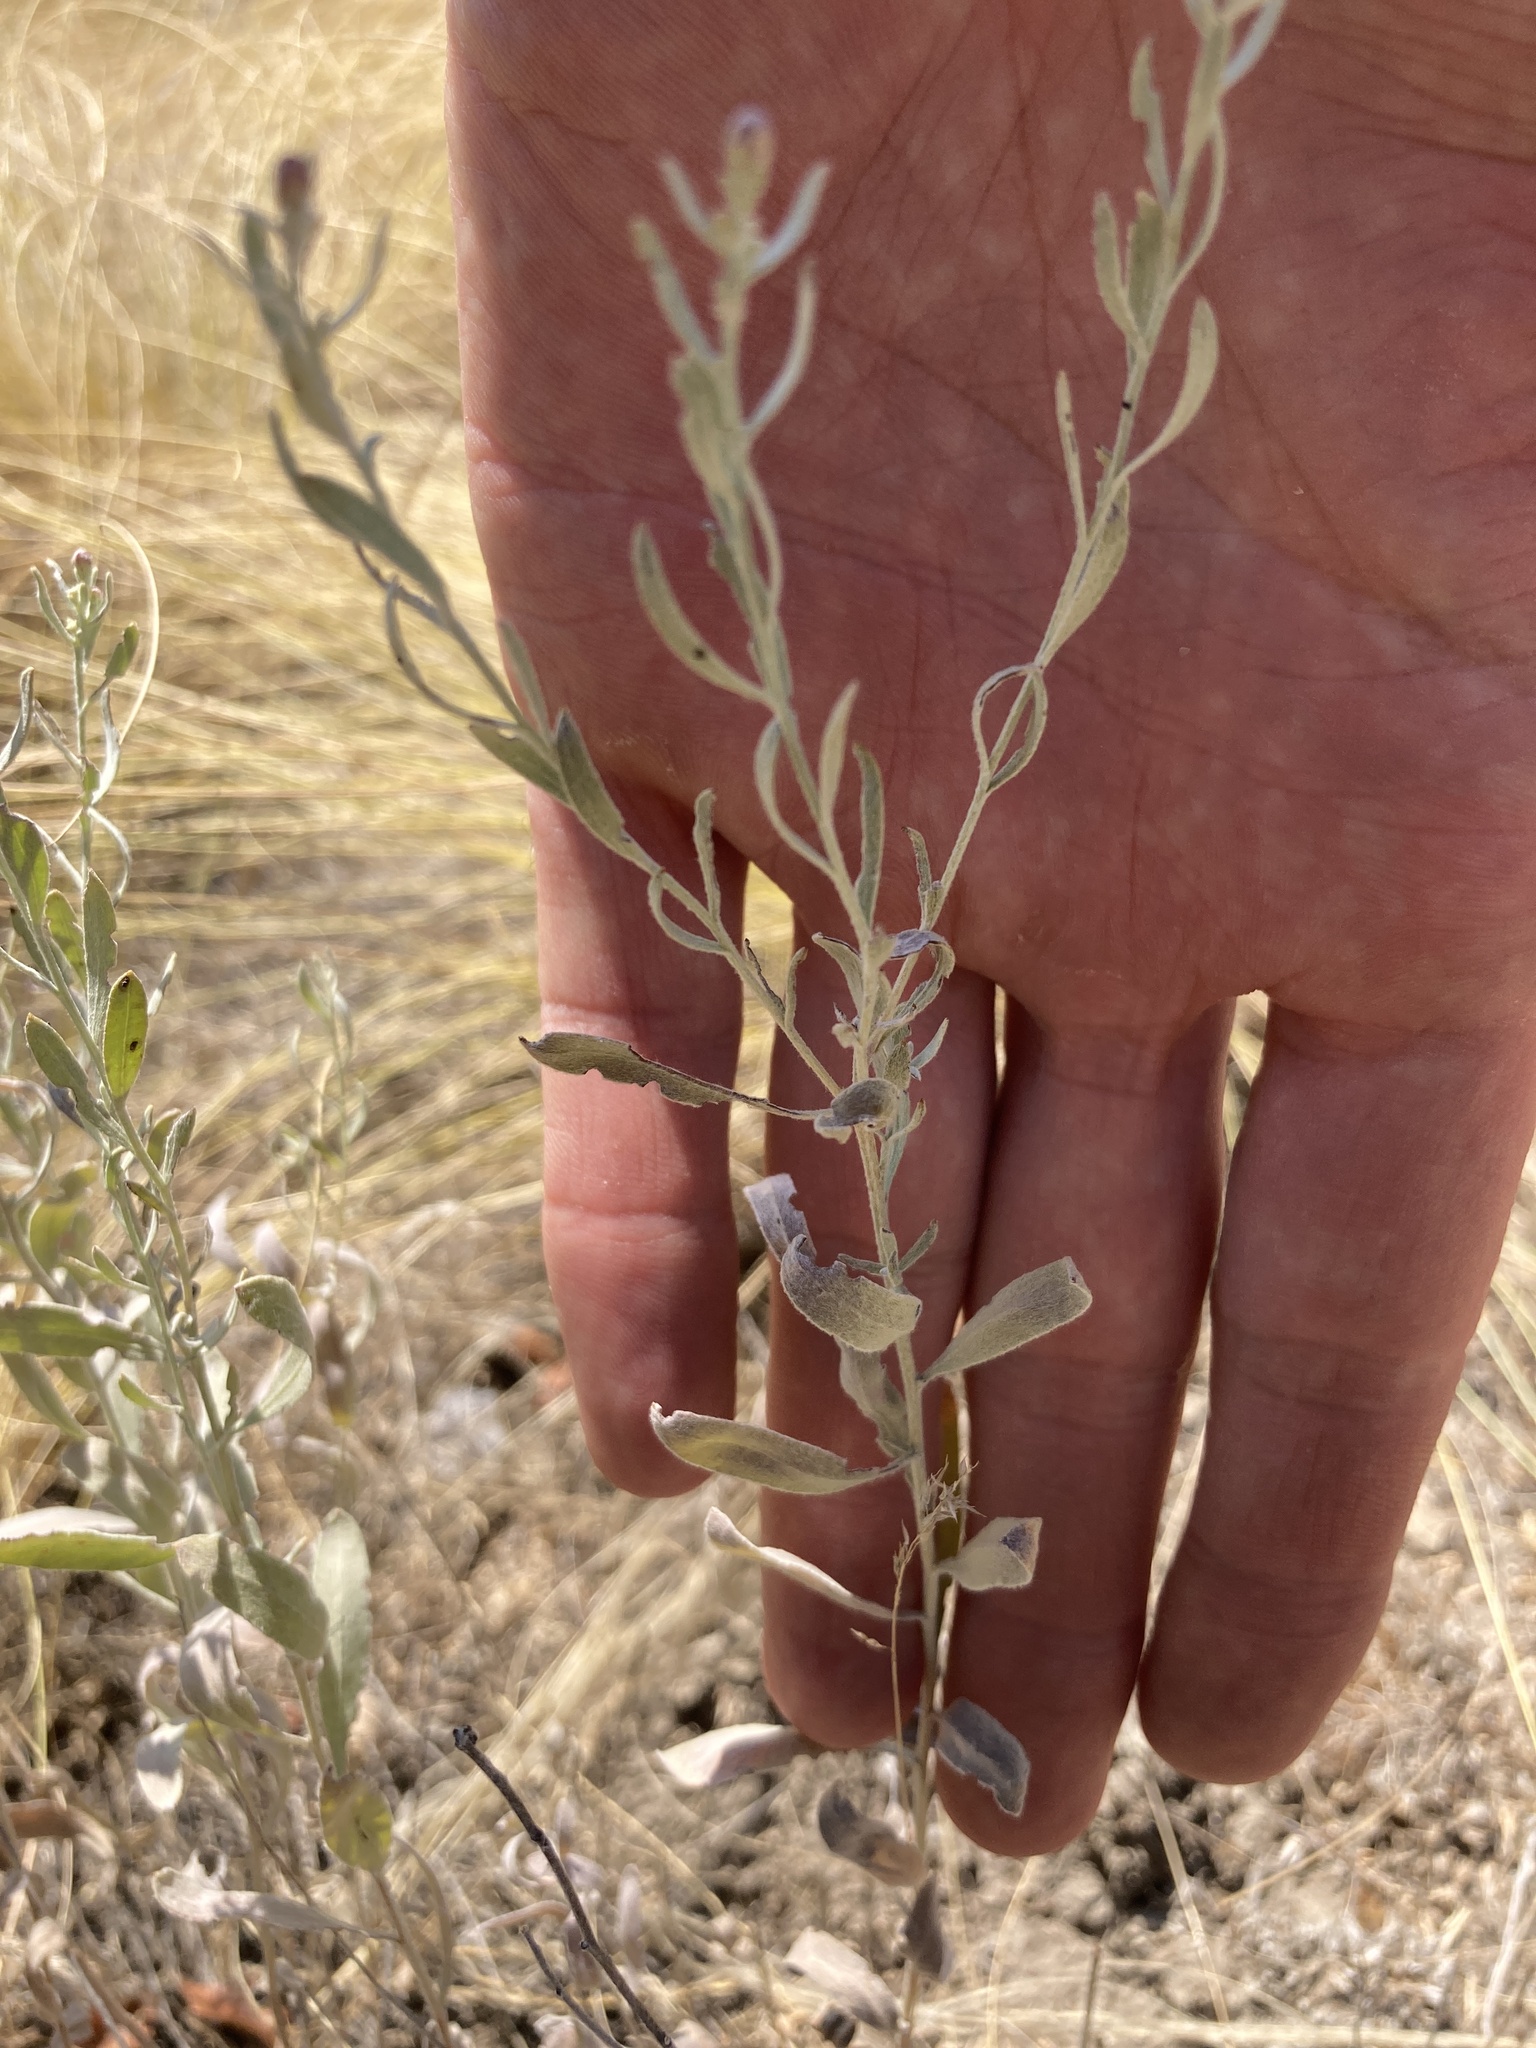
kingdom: Plantae
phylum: Tracheophyta
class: Magnoliopsida
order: Asterales
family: Asteraceae
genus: Galatella
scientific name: Galatella villosa
